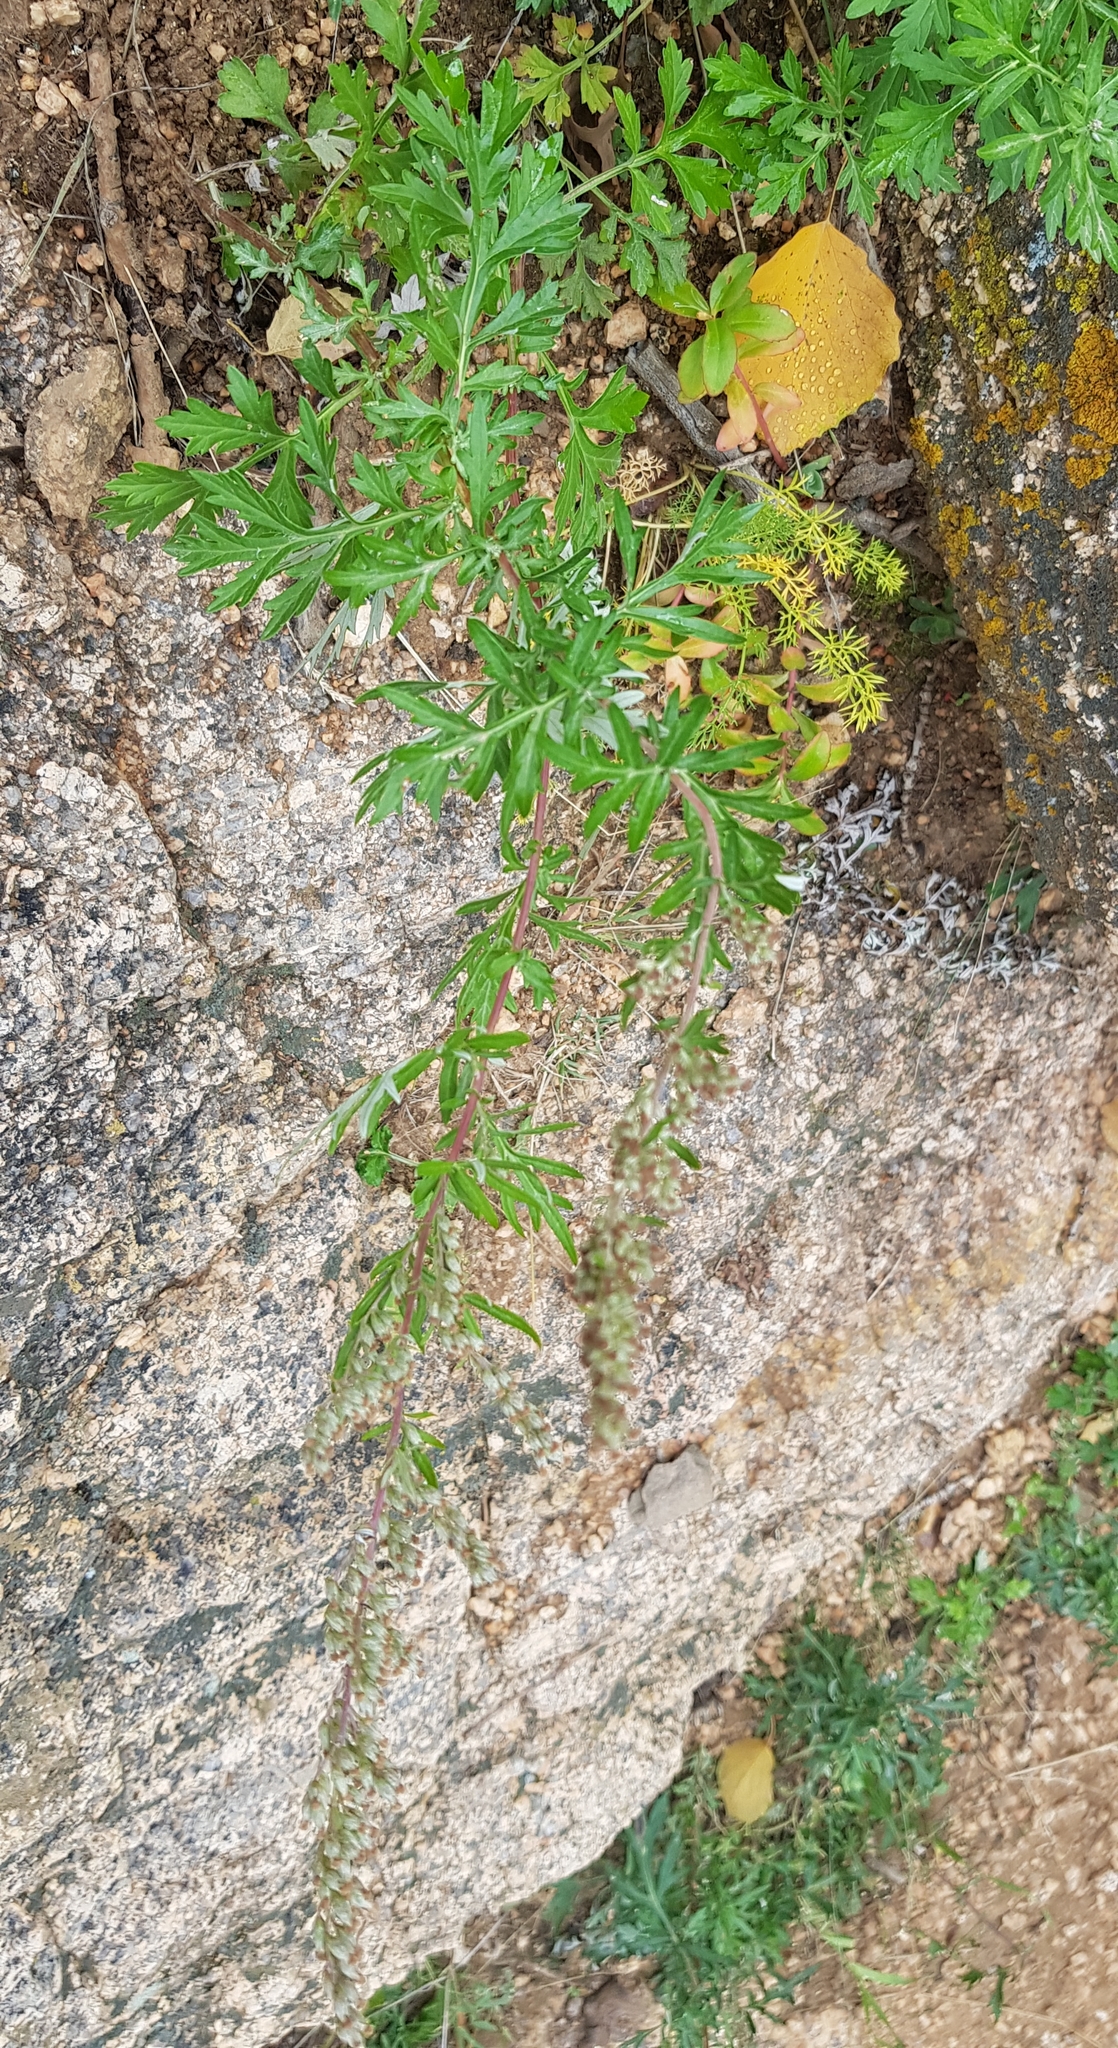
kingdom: Plantae
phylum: Tracheophyta
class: Magnoliopsida
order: Asterales
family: Asteraceae
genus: Artemisia
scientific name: Artemisia vulgaris
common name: Mugwort
